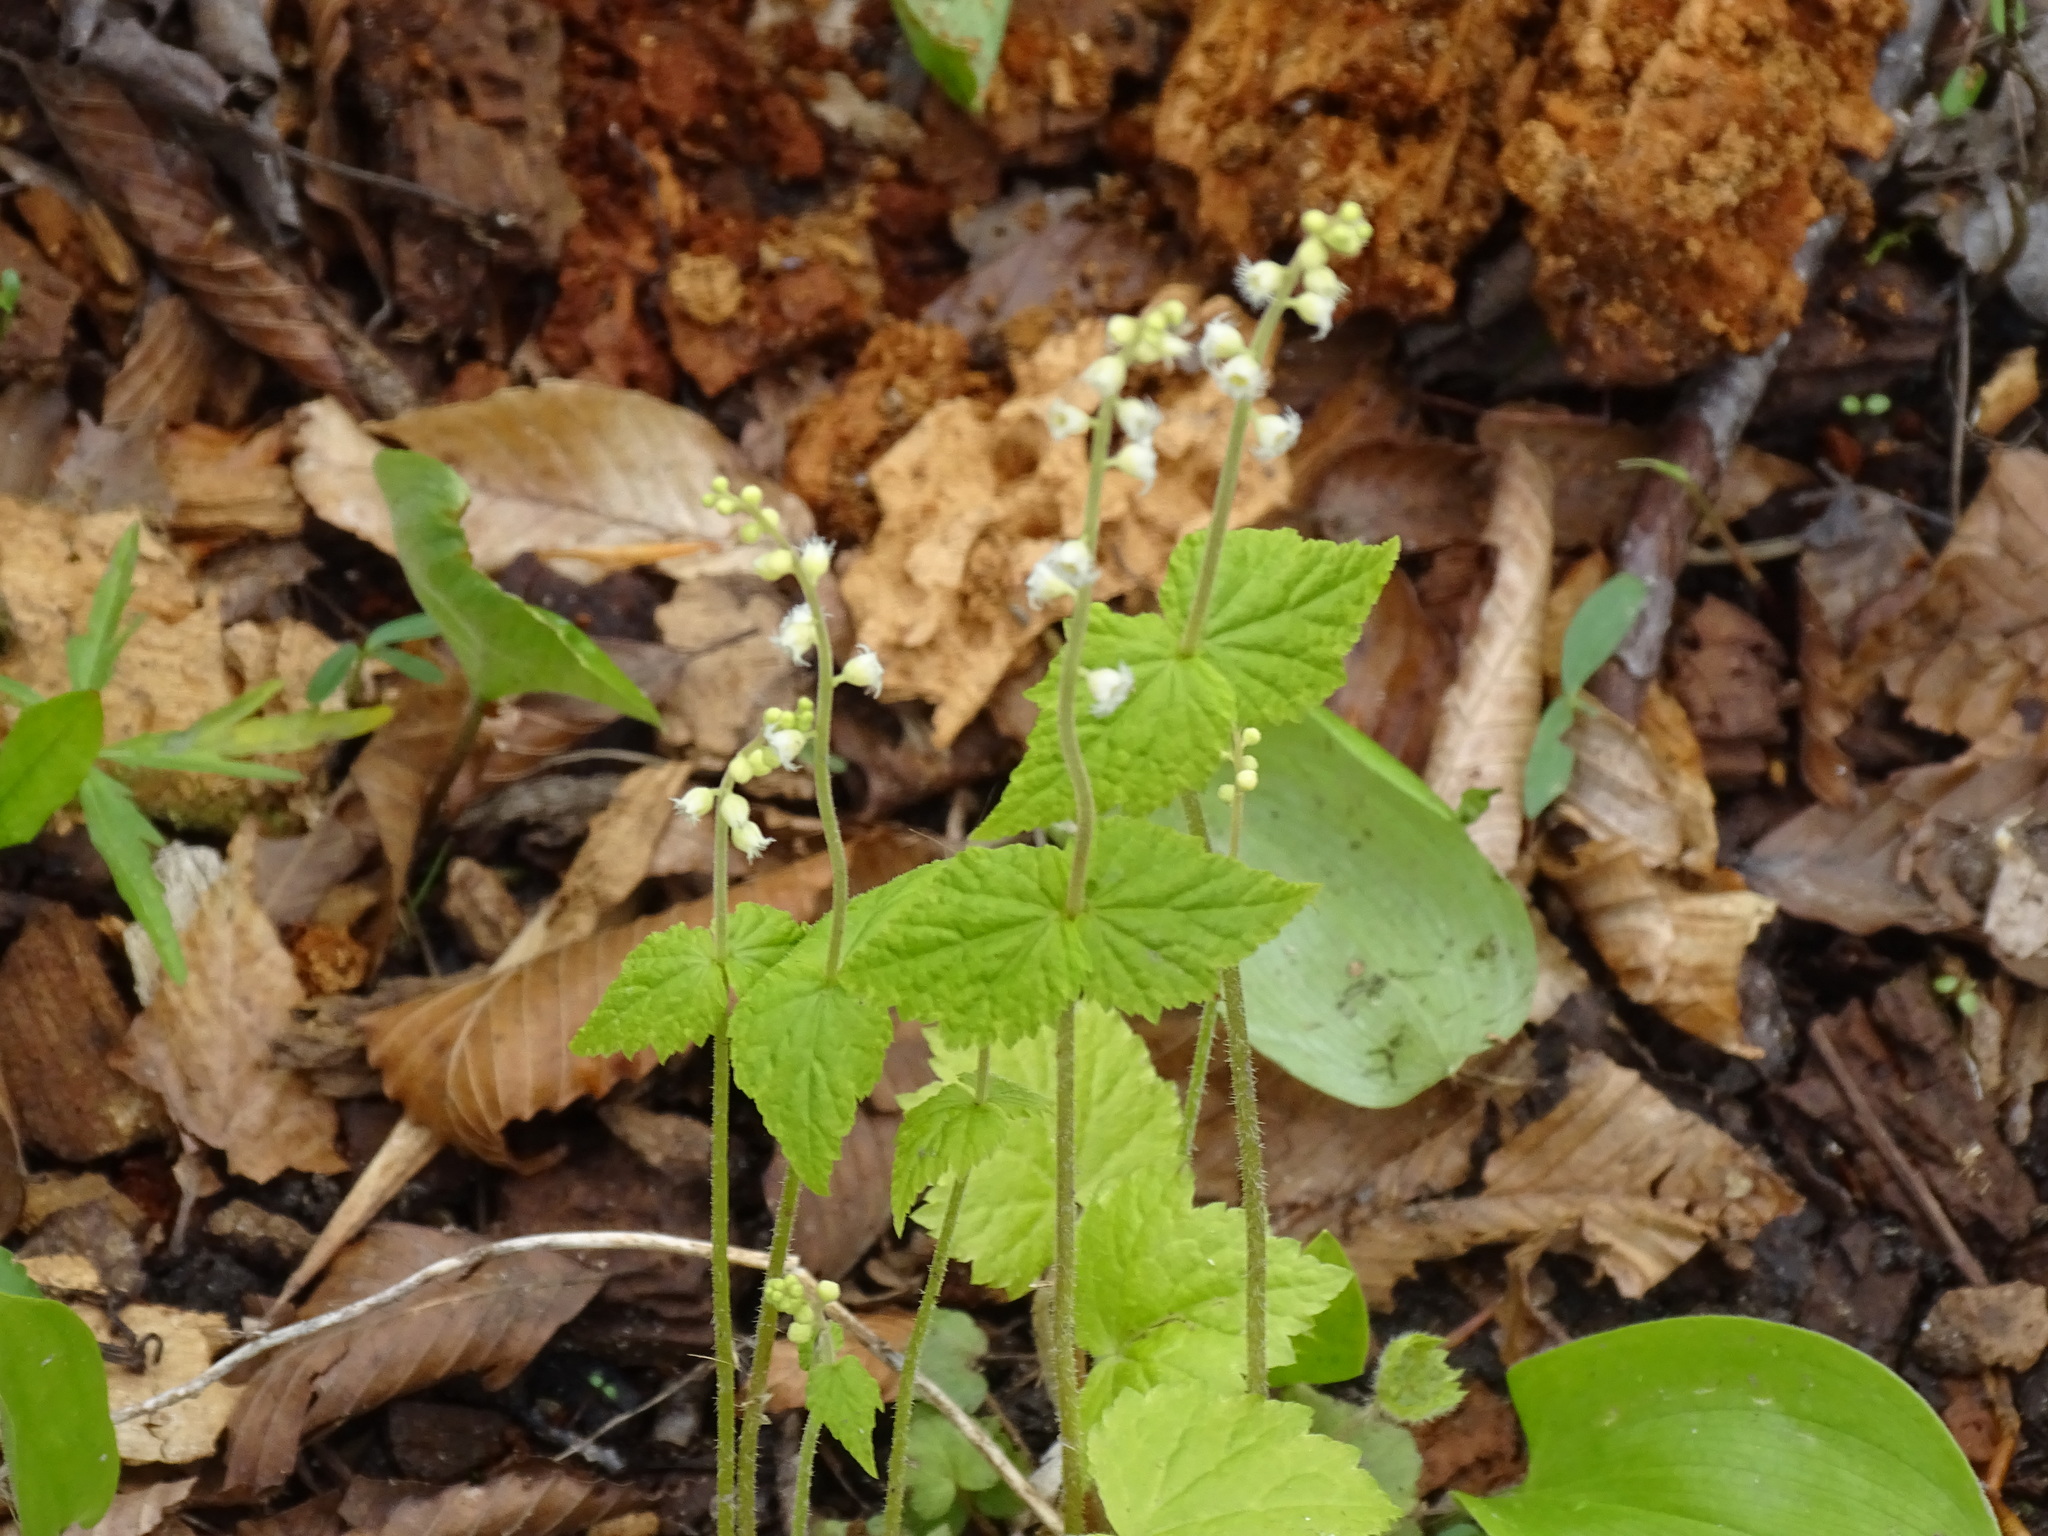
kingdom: Plantae
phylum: Tracheophyta
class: Magnoliopsida
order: Saxifragales
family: Saxifragaceae
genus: Mitella
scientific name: Mitella diphylla
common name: Coolwort
